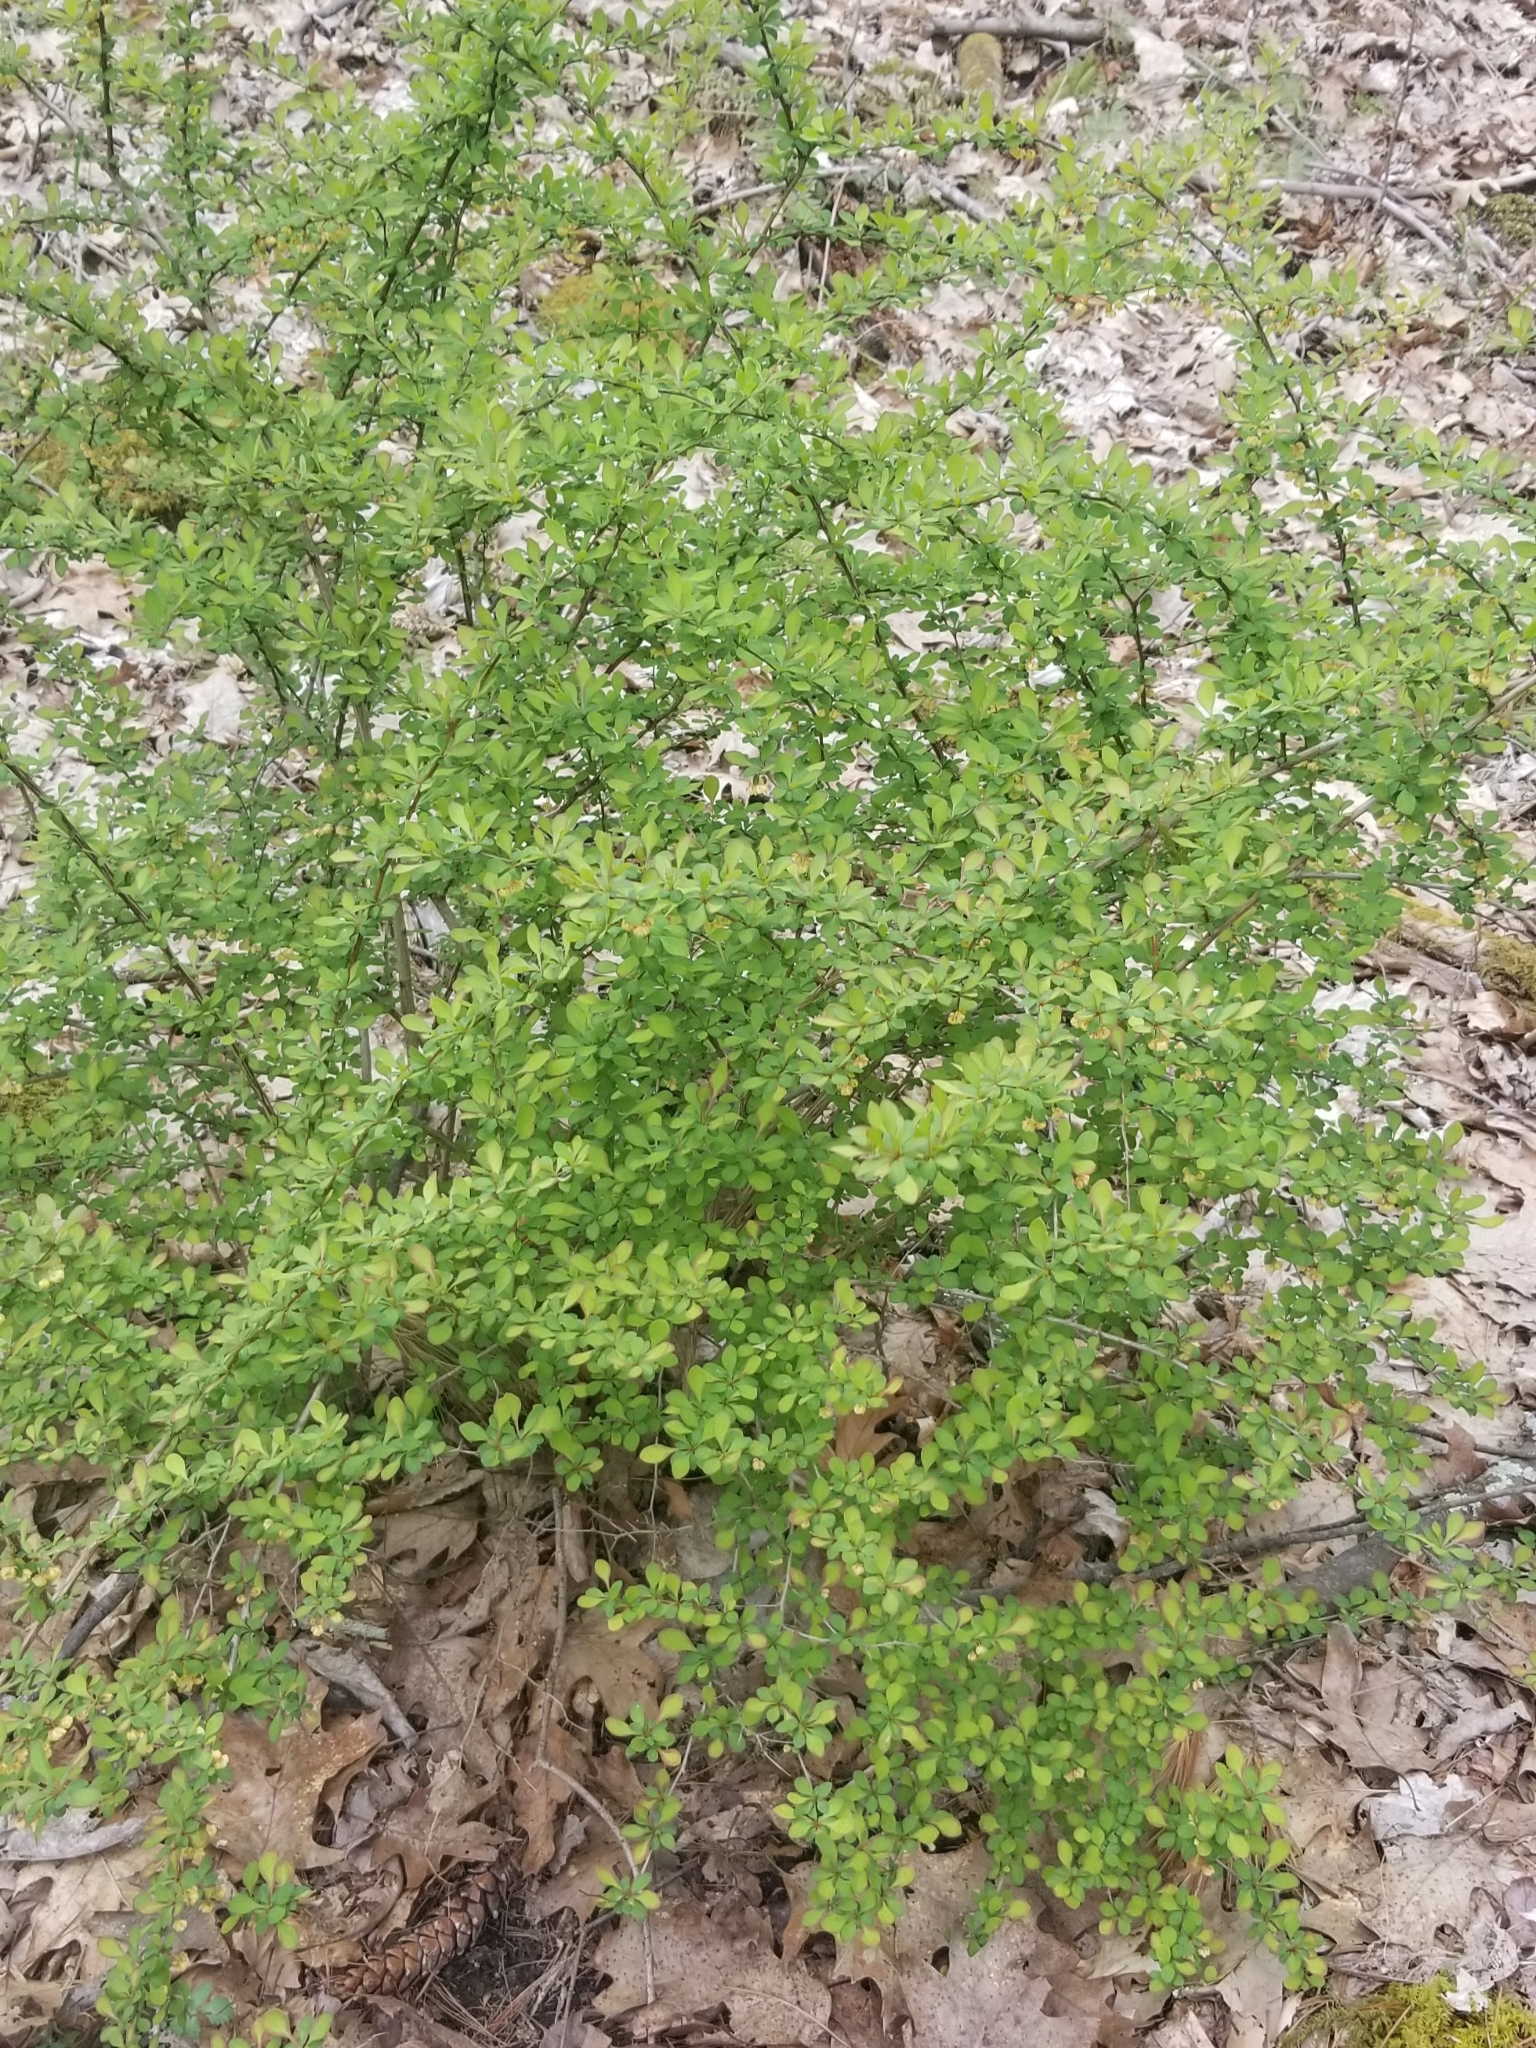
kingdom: Plantae
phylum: Tracheophyta
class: Magnoliopsida
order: Ranunculales
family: Berberidaceae
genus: Berberis
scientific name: Berberis thunbergii
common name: Japanese barberry
